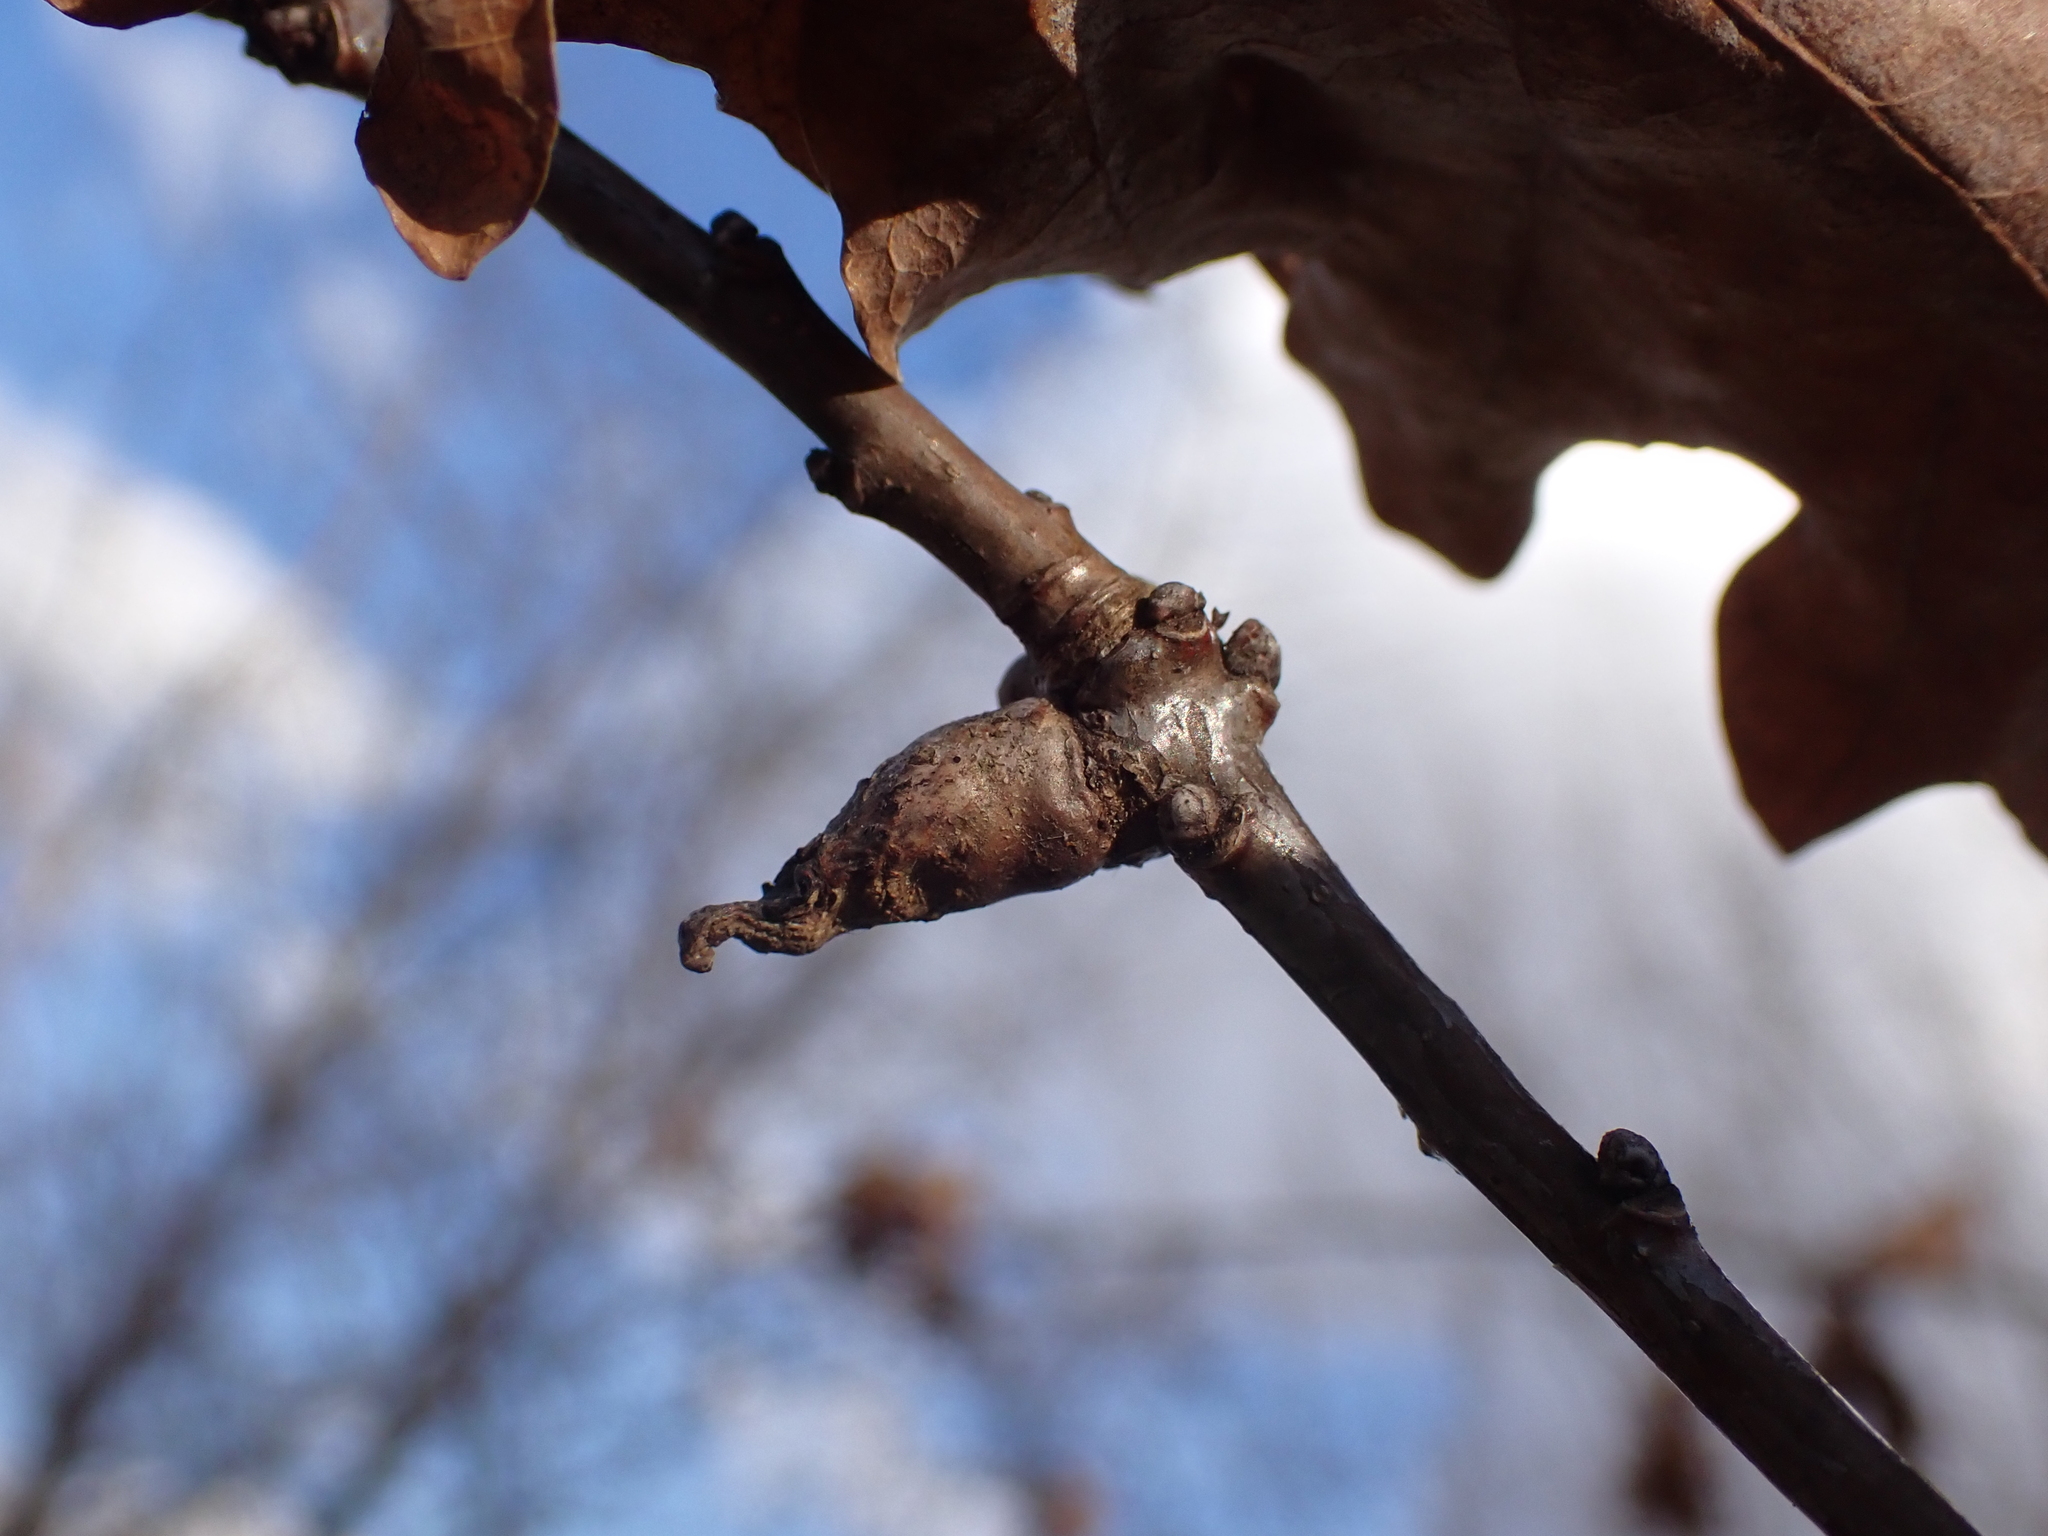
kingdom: Animalia
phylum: Arthropoda
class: Insecta
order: Hymenoptera
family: Cynipidae
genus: Andricus
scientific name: Andricus aries
